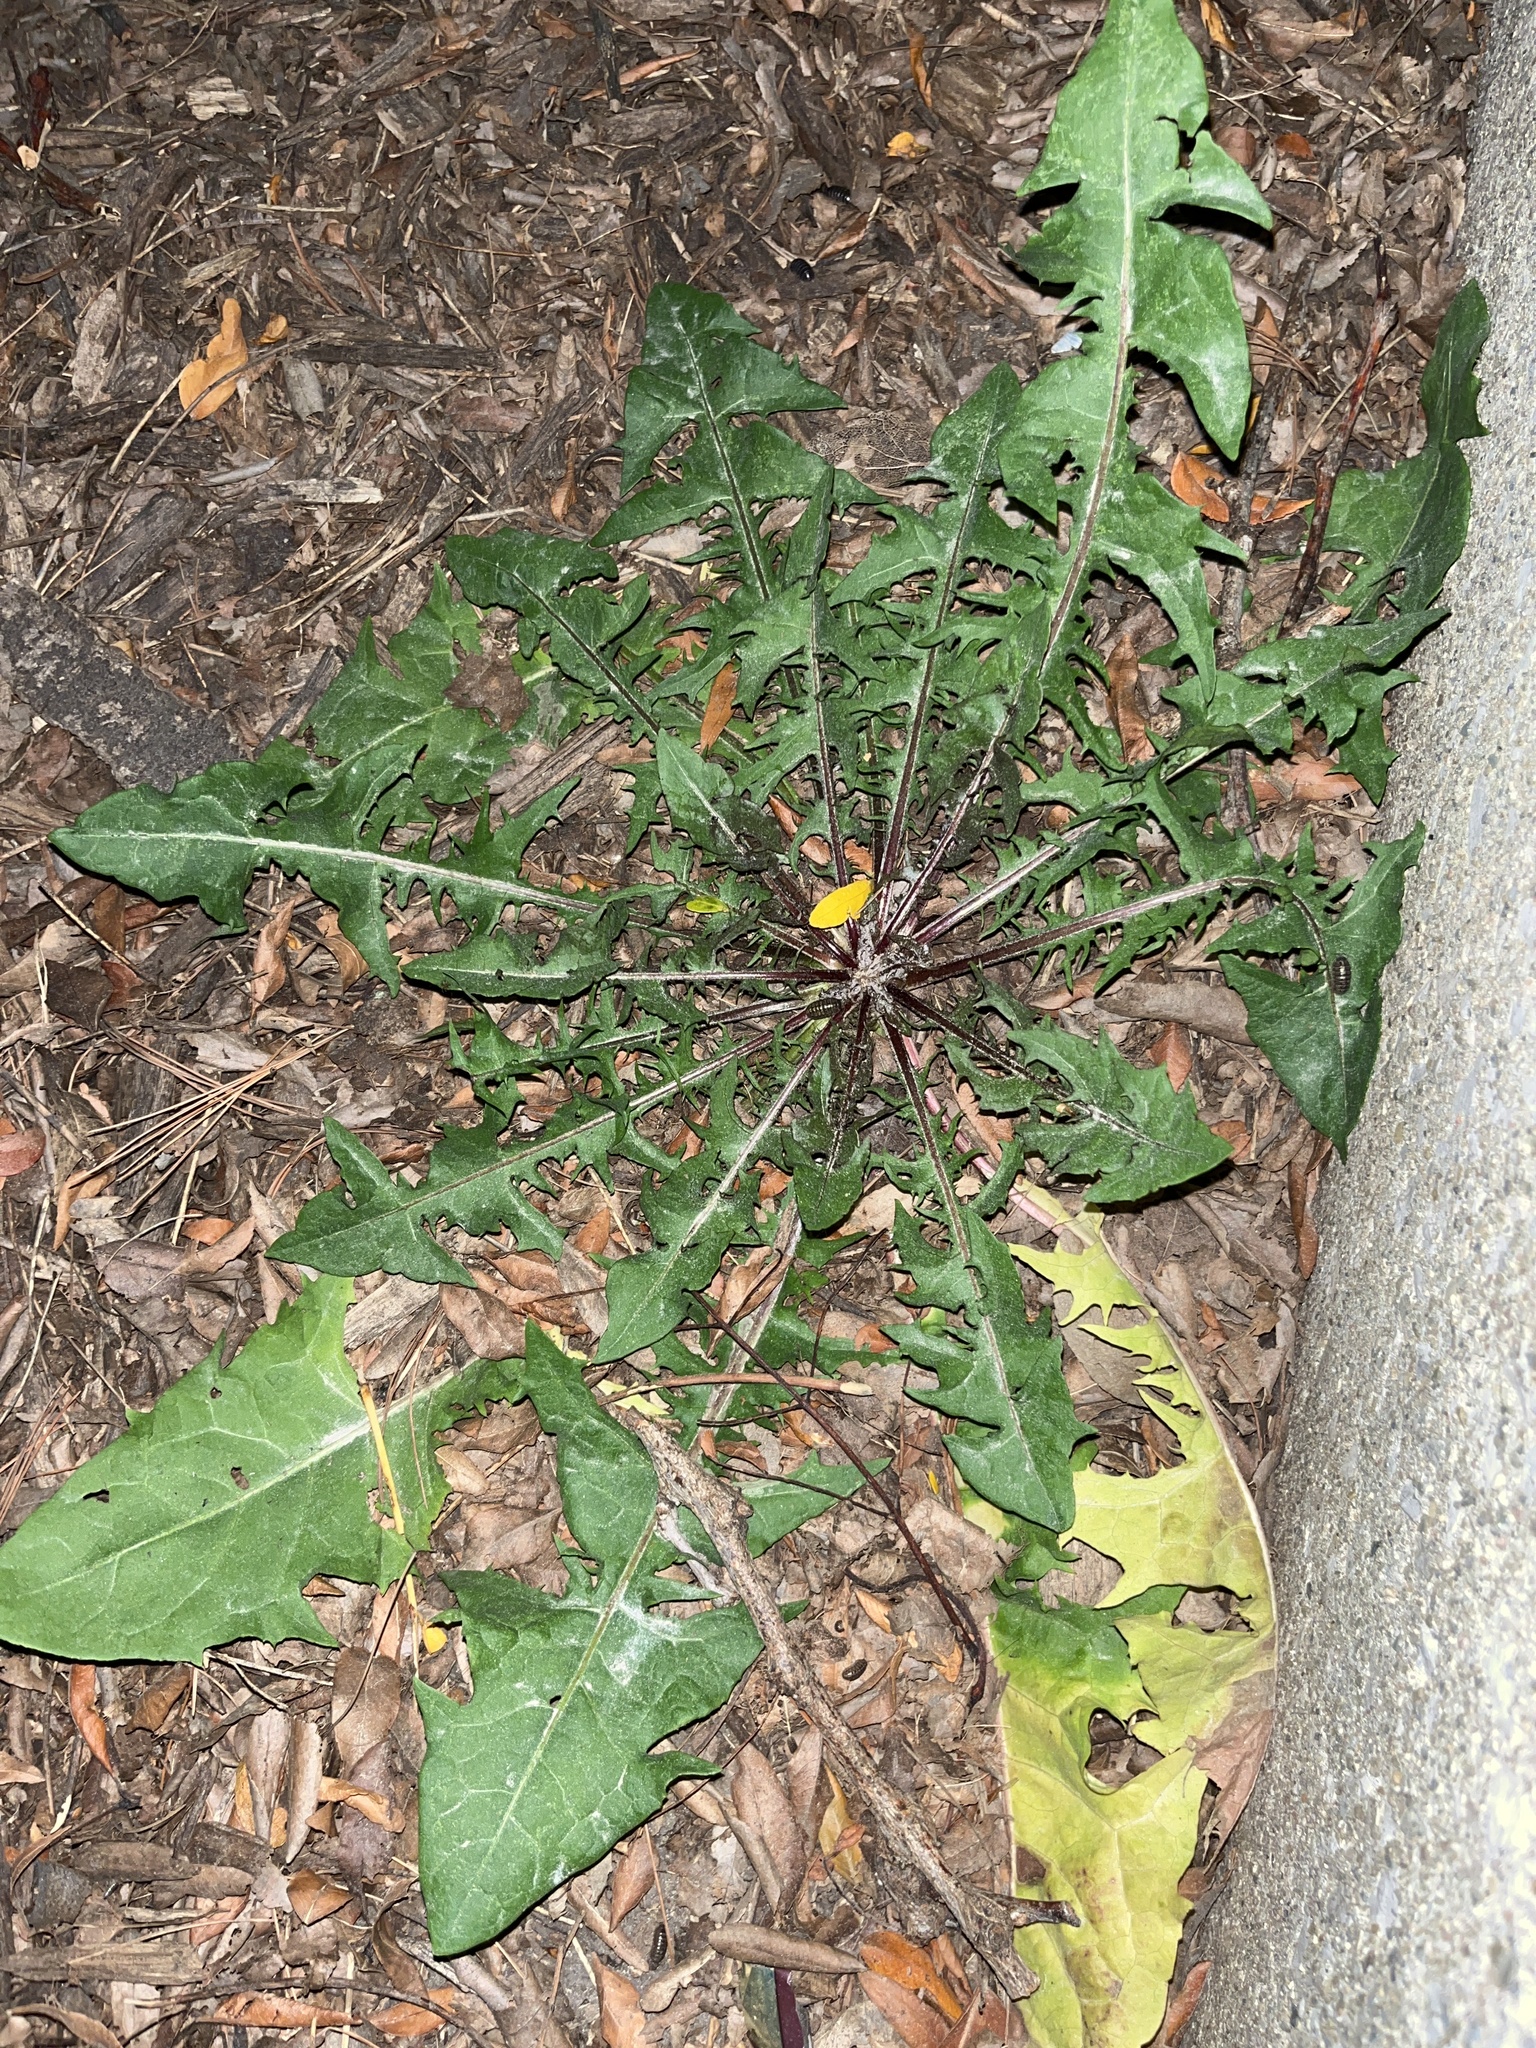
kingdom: Plantae
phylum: Tracheophyta
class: Magnoliopsida
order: Asterales
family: Asteraceae
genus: Taraxacum
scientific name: Taraxacum officinale
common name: Common dandelion
